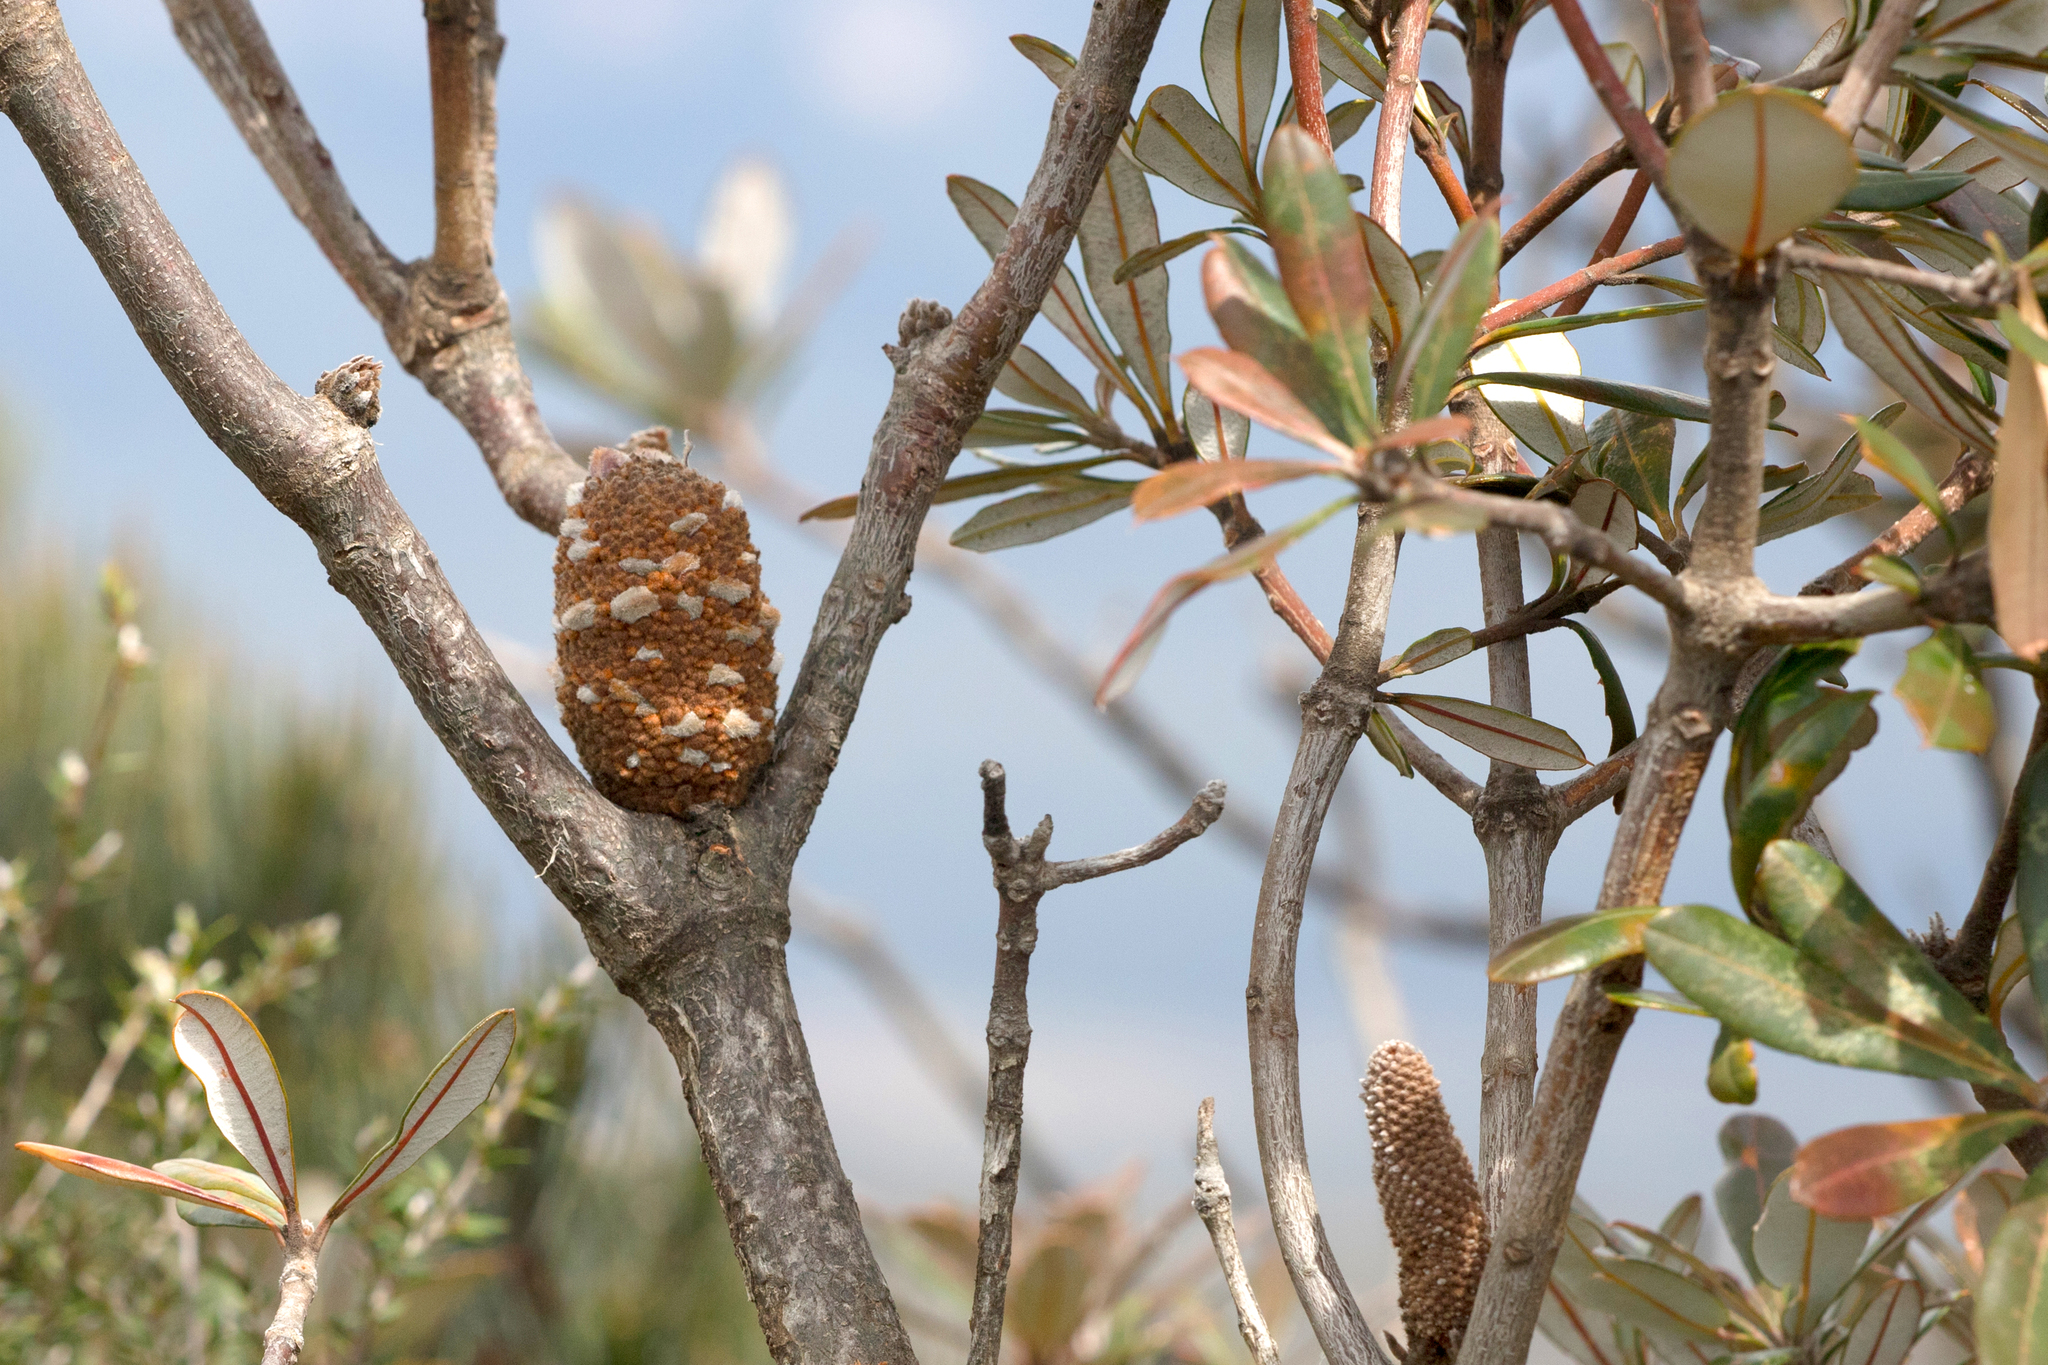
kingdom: Plantae
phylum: Tracheophyta
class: Magnoliopsida
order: Proteales
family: Proteaceae
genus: Banksia
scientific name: Banksia saxicola
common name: Grampians banksia
